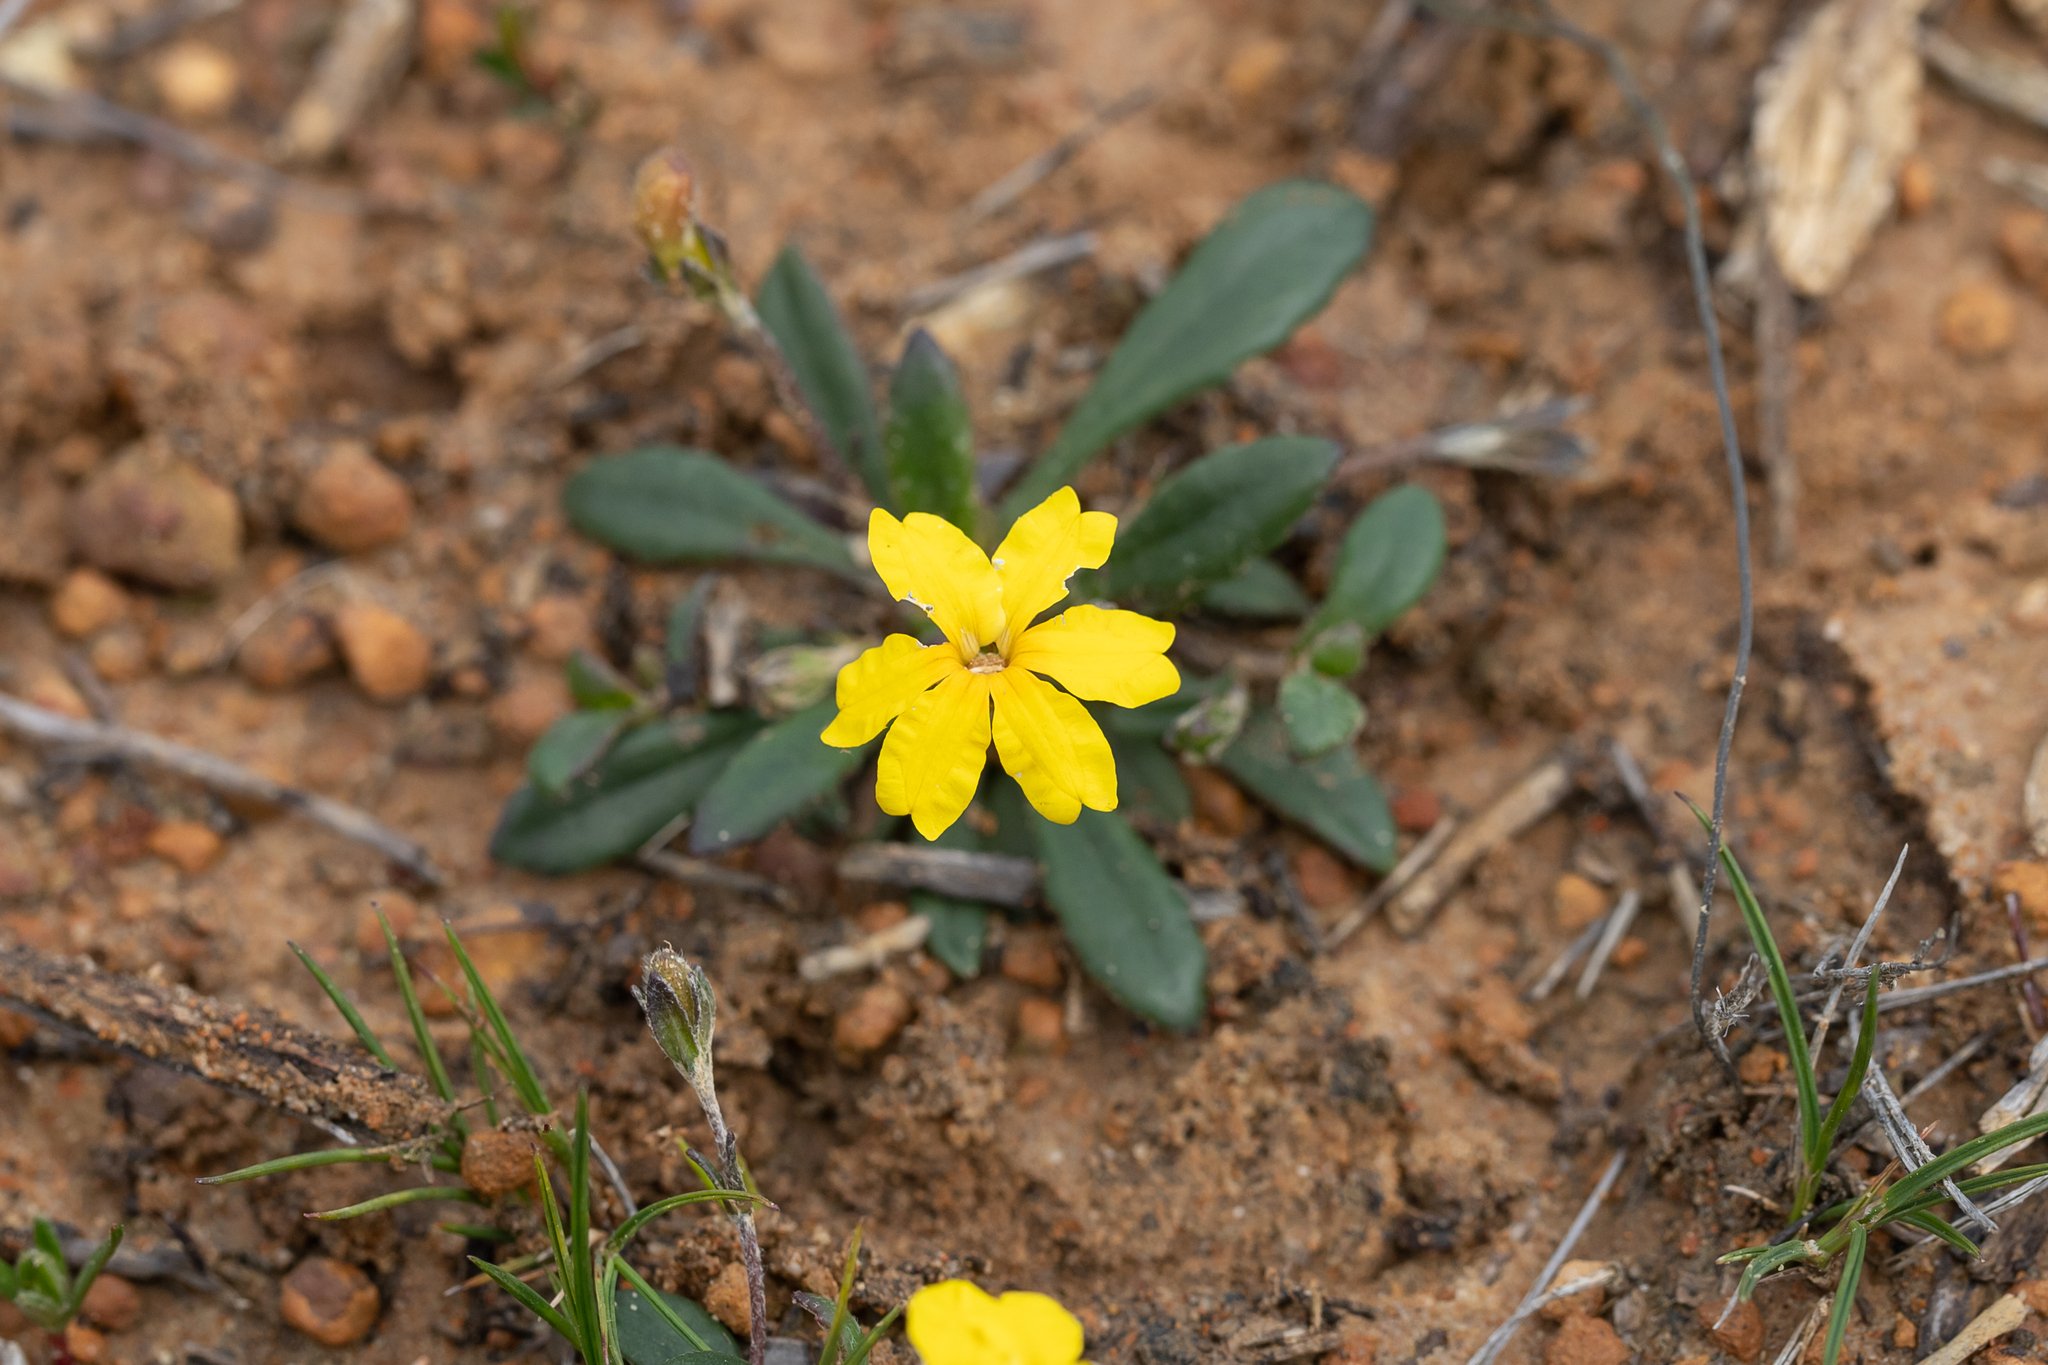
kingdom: Plantae
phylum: Tracheophyta
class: Magnoliopsida
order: Asterales
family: Goodeniaceae
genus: Goodenia
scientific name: Goodenia blackiana
